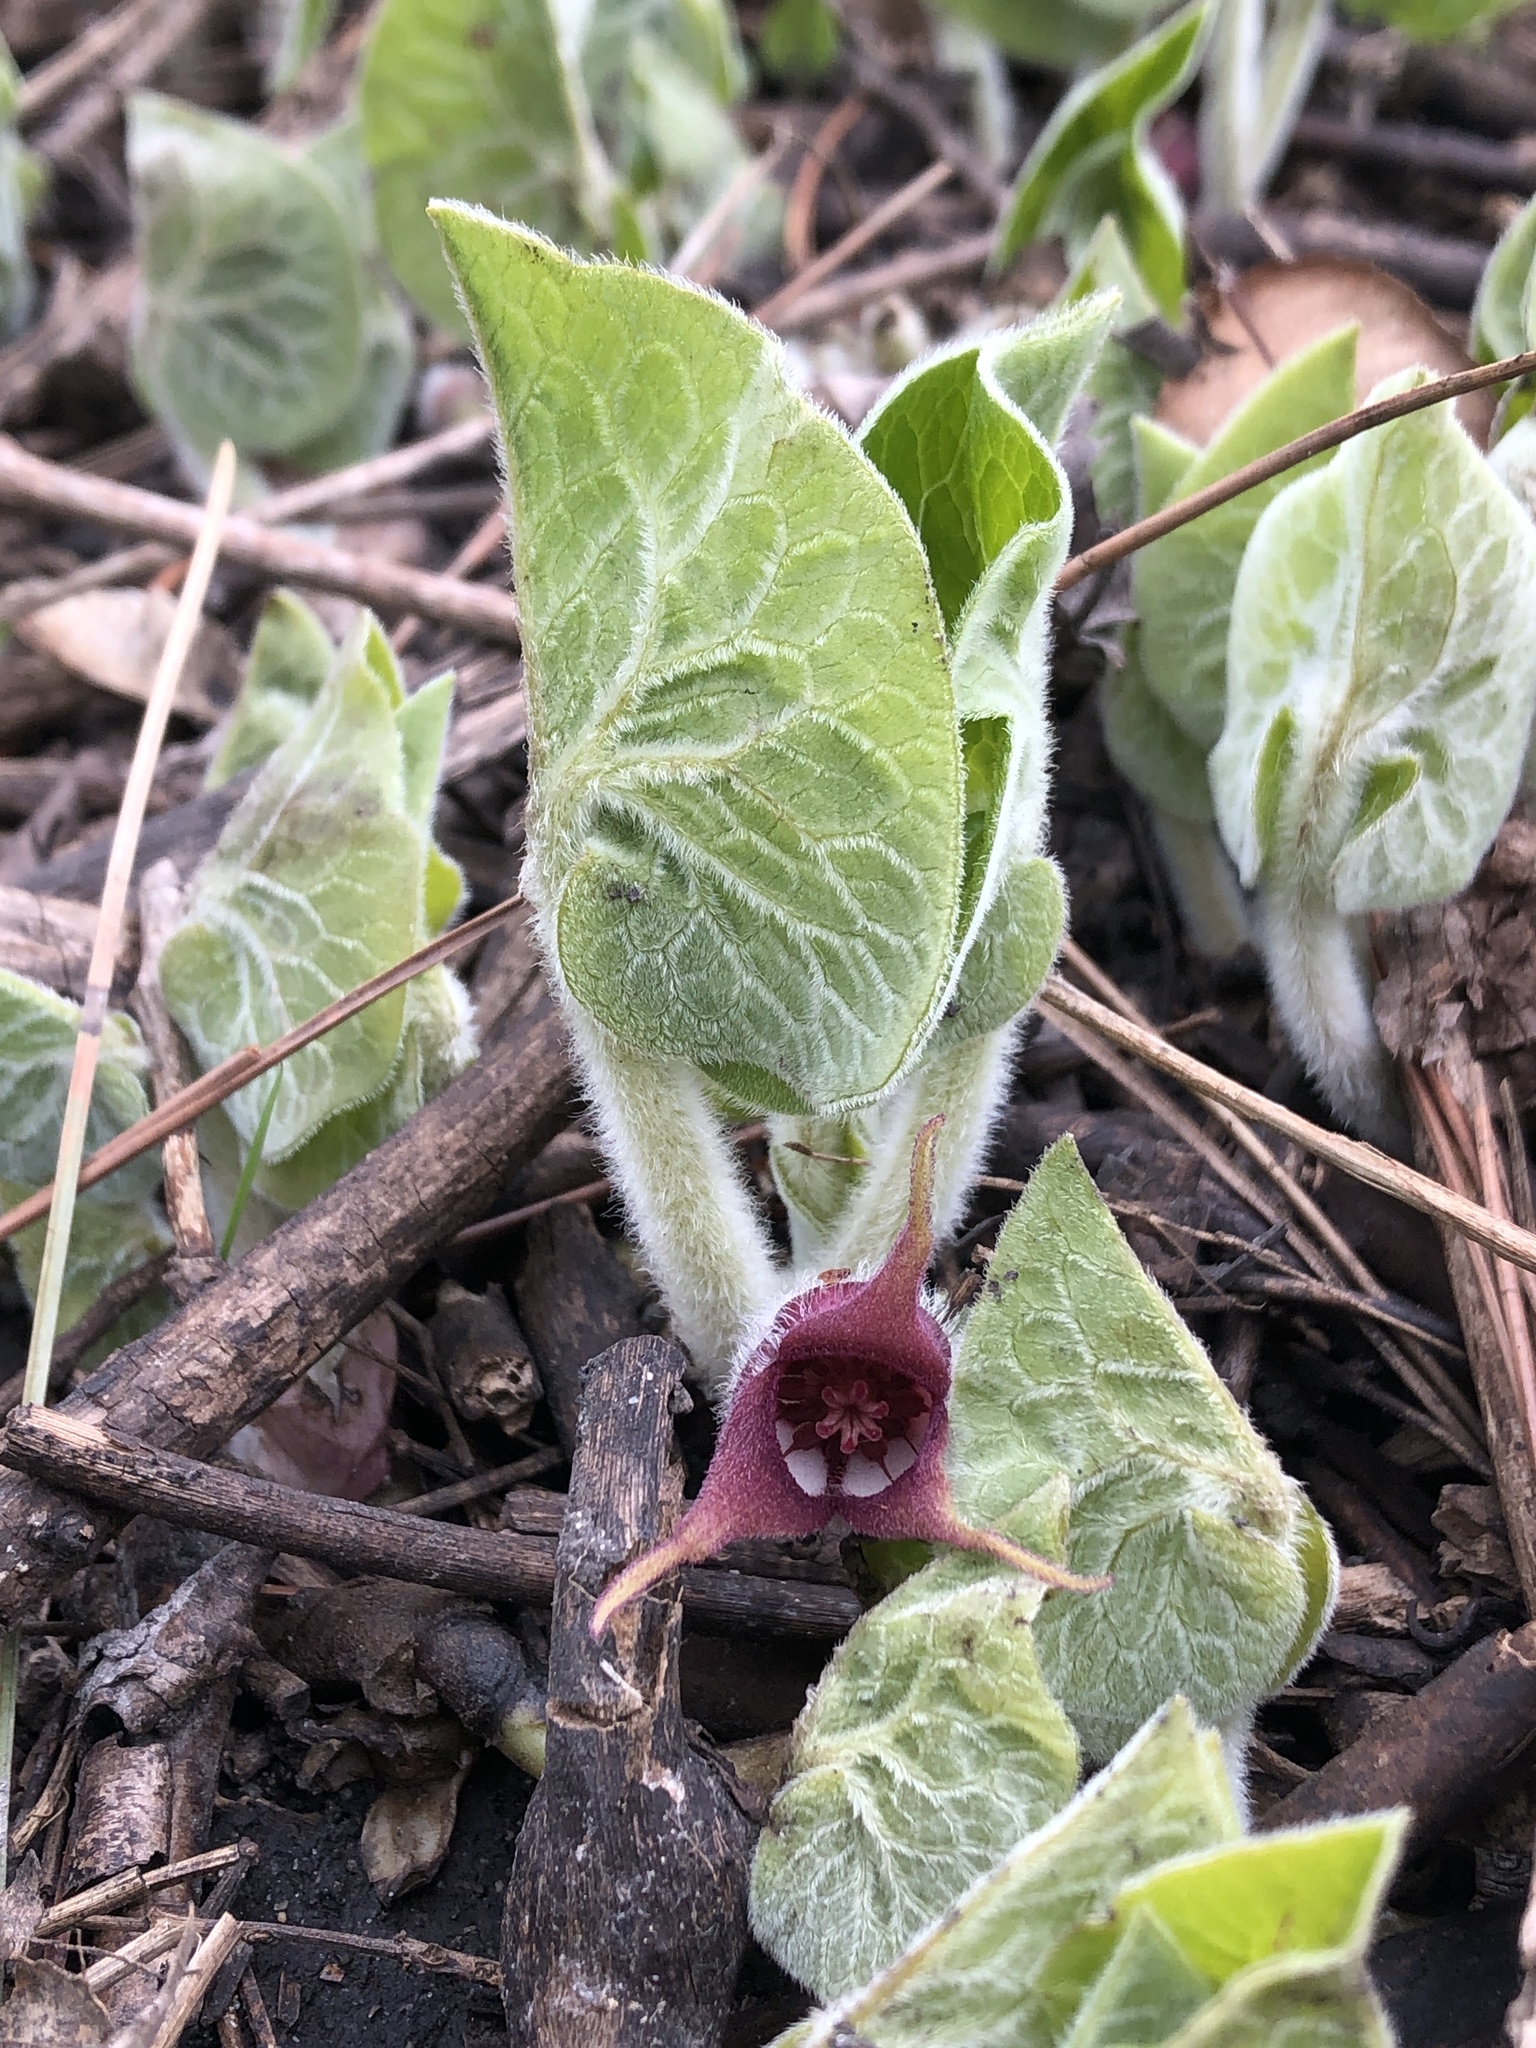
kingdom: Plantae
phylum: Tracheophyta
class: Magnoliopsida
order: Piperales
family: Aristolochiaceae
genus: Asarum
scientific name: Asarum canadense
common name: Wild ginger
